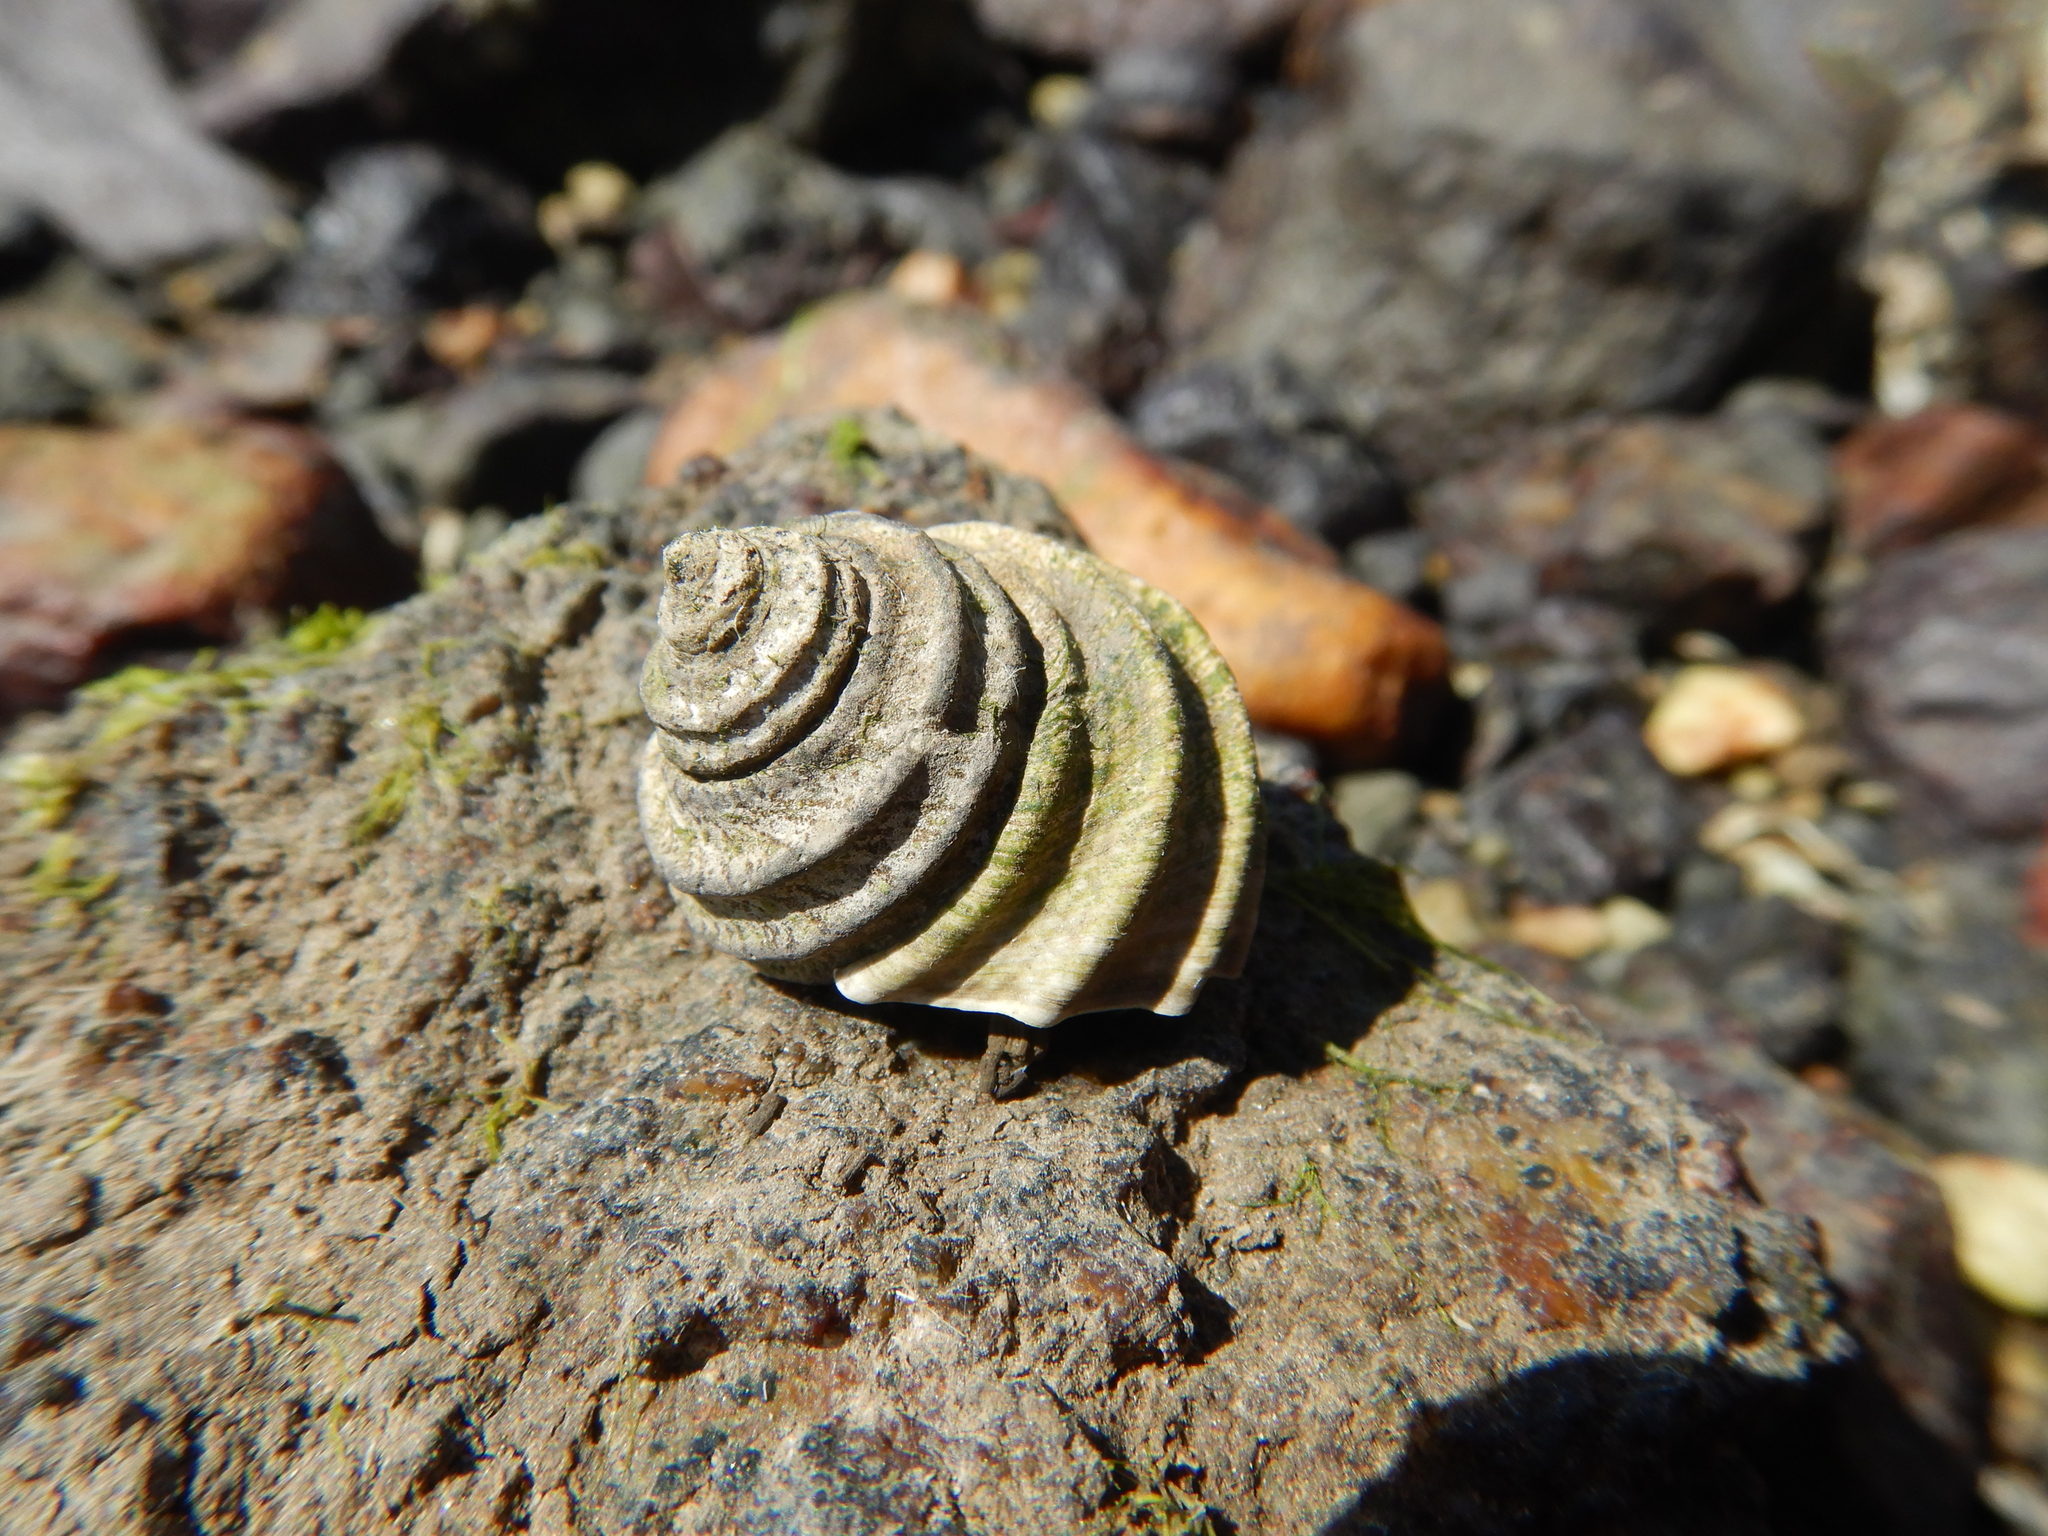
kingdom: Animalia
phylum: Mollusca
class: Gastropoda
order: Trochida
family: Trochidae
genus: Austrocochlea
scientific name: Austrocochlea constricta
